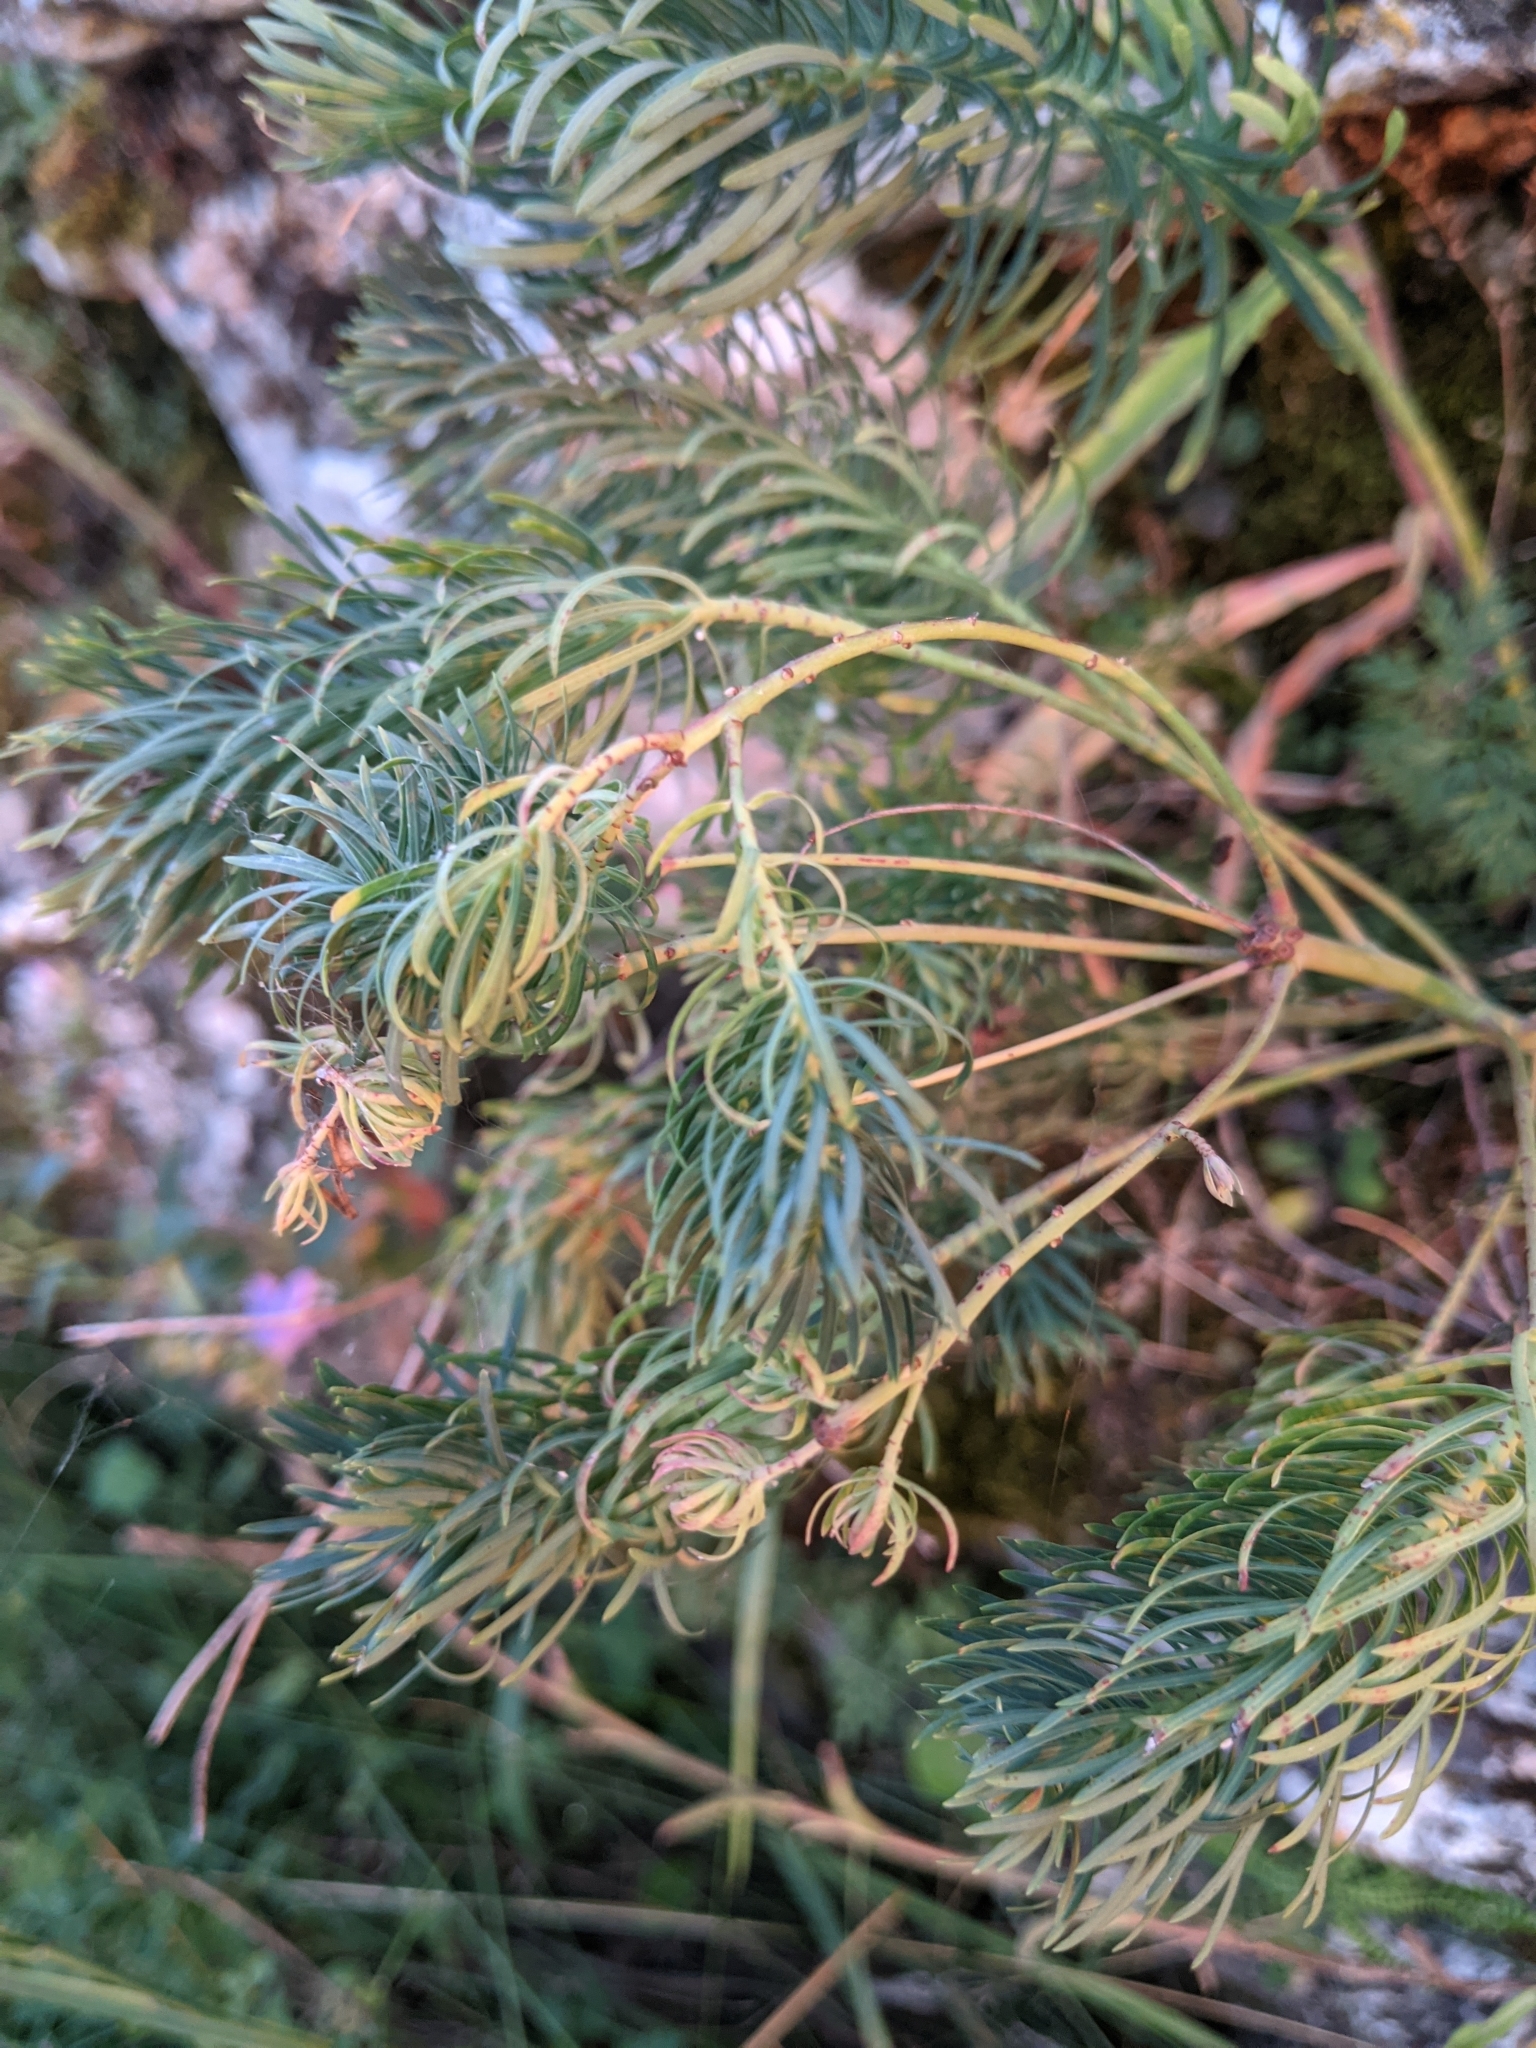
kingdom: Plantae
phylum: Tracheophyta
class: Magnoliopsida
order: Malpighiales
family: Euphorbiaceae
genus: Euphorbia
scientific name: Euphorbia cyparissias
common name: Cypress spurge
